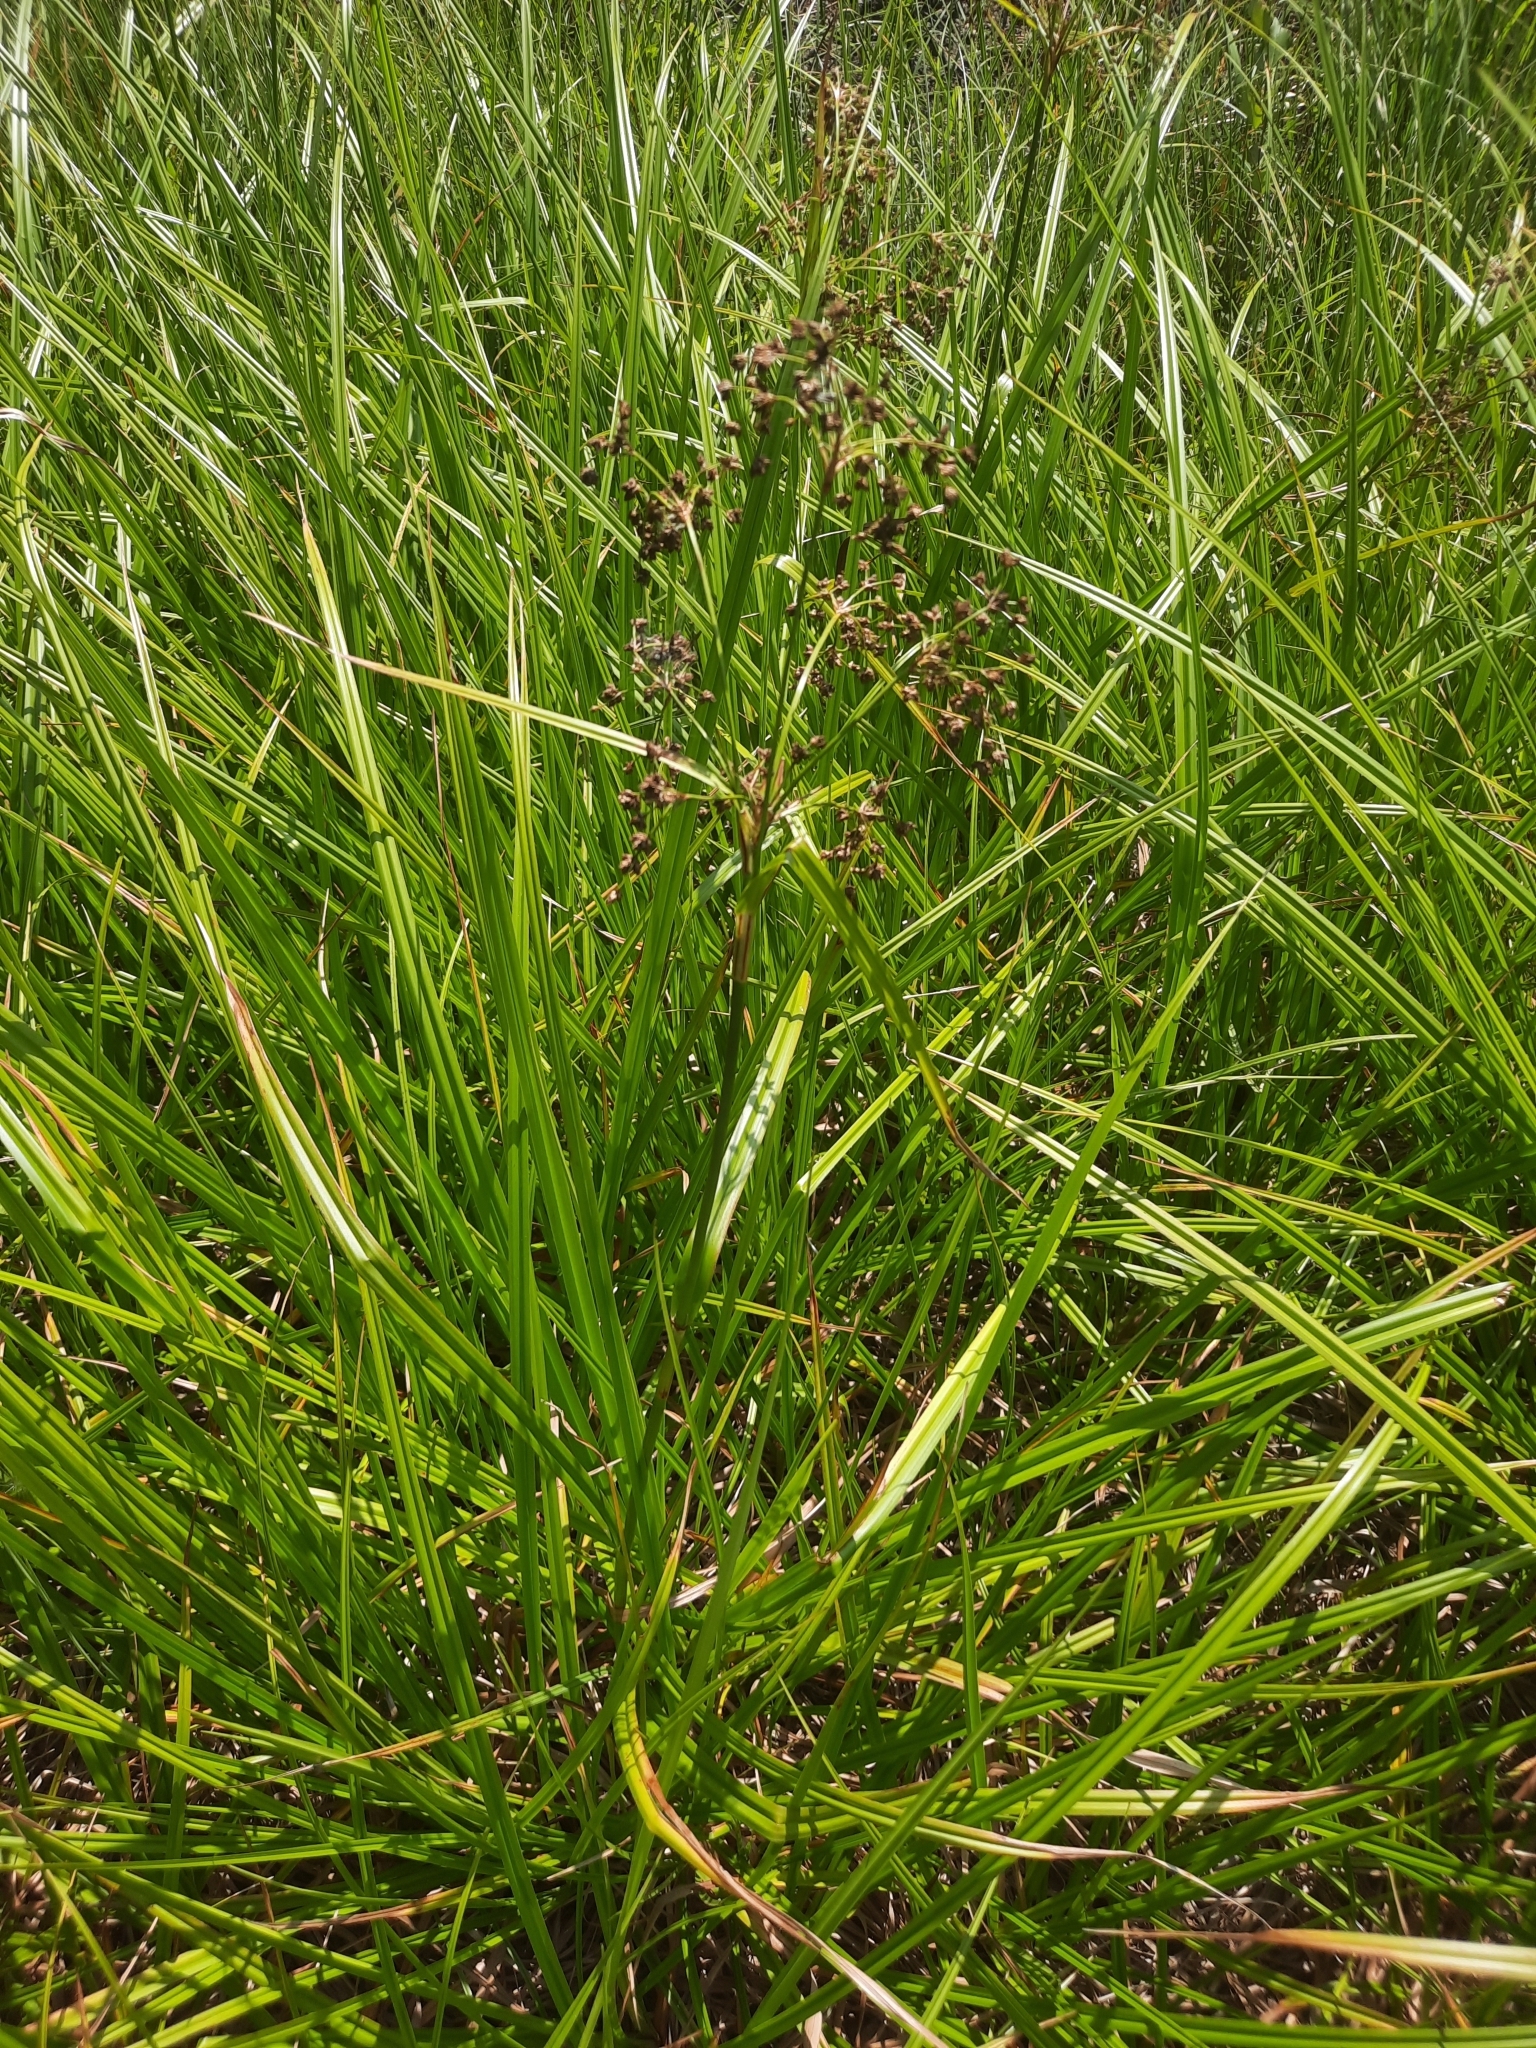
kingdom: Plantae
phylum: Tracheophyta
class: Liliopsida
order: Poales
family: Cyperaceae
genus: Scirpus
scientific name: Scirpus sylvaticus
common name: Wood club-rush
